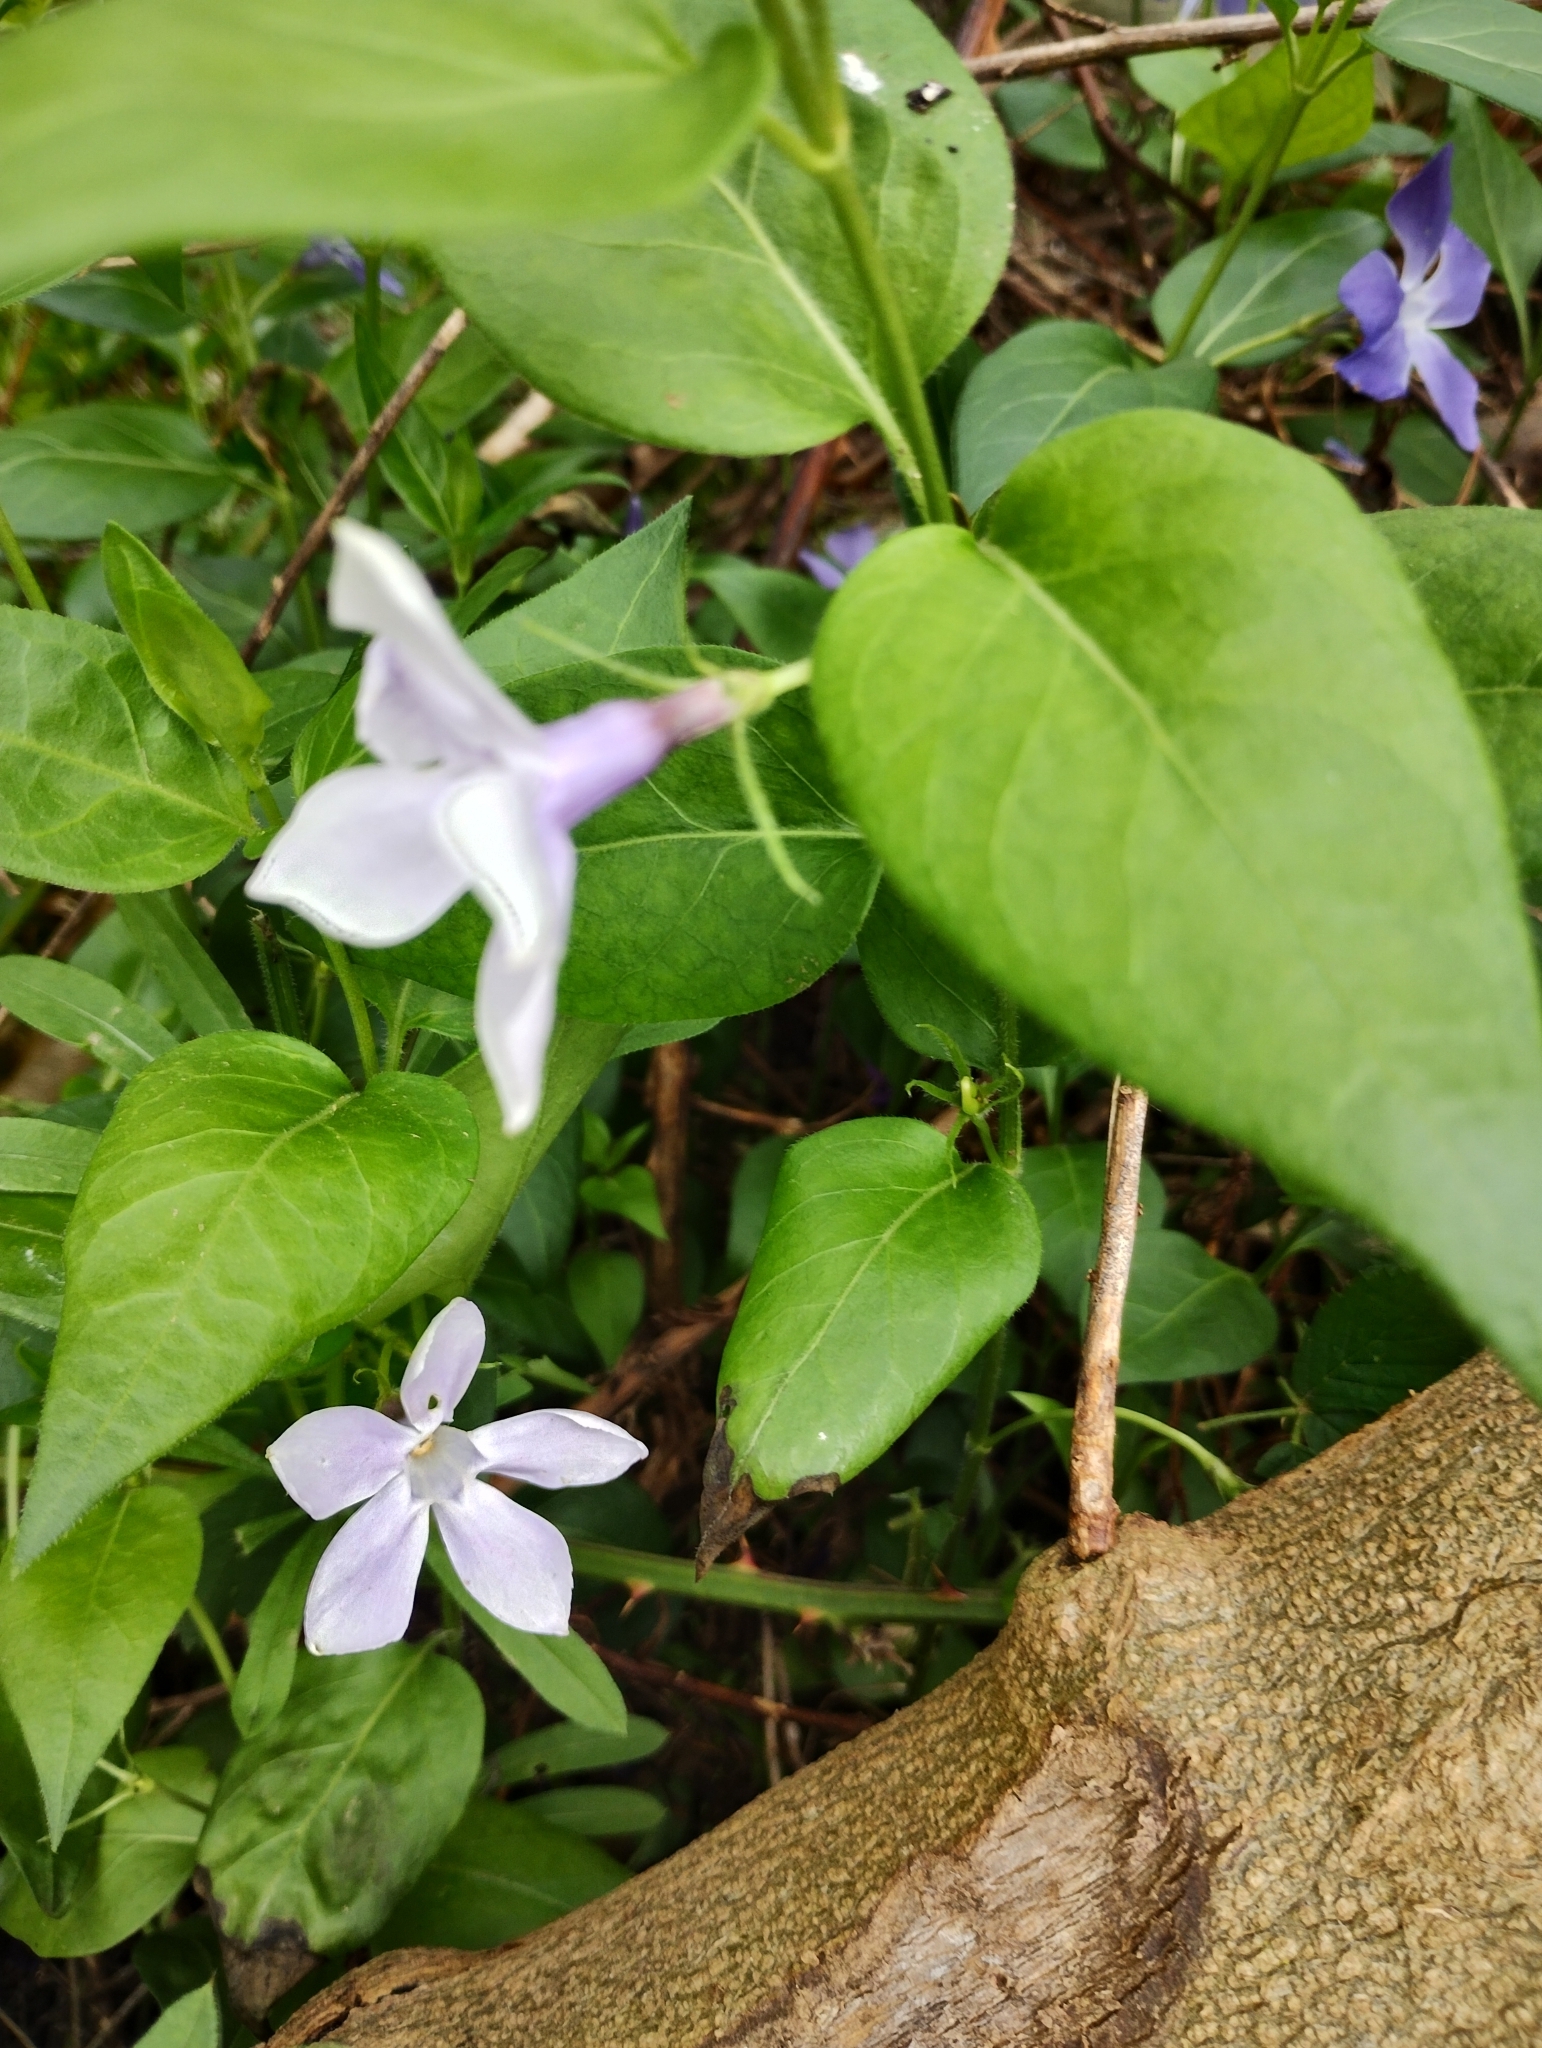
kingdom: Plantae
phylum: Tracheophyta
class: Magnoliopsida
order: Gentianales
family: Apocynaceae
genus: Vinca
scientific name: Vinca major
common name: Greater periwinkle
